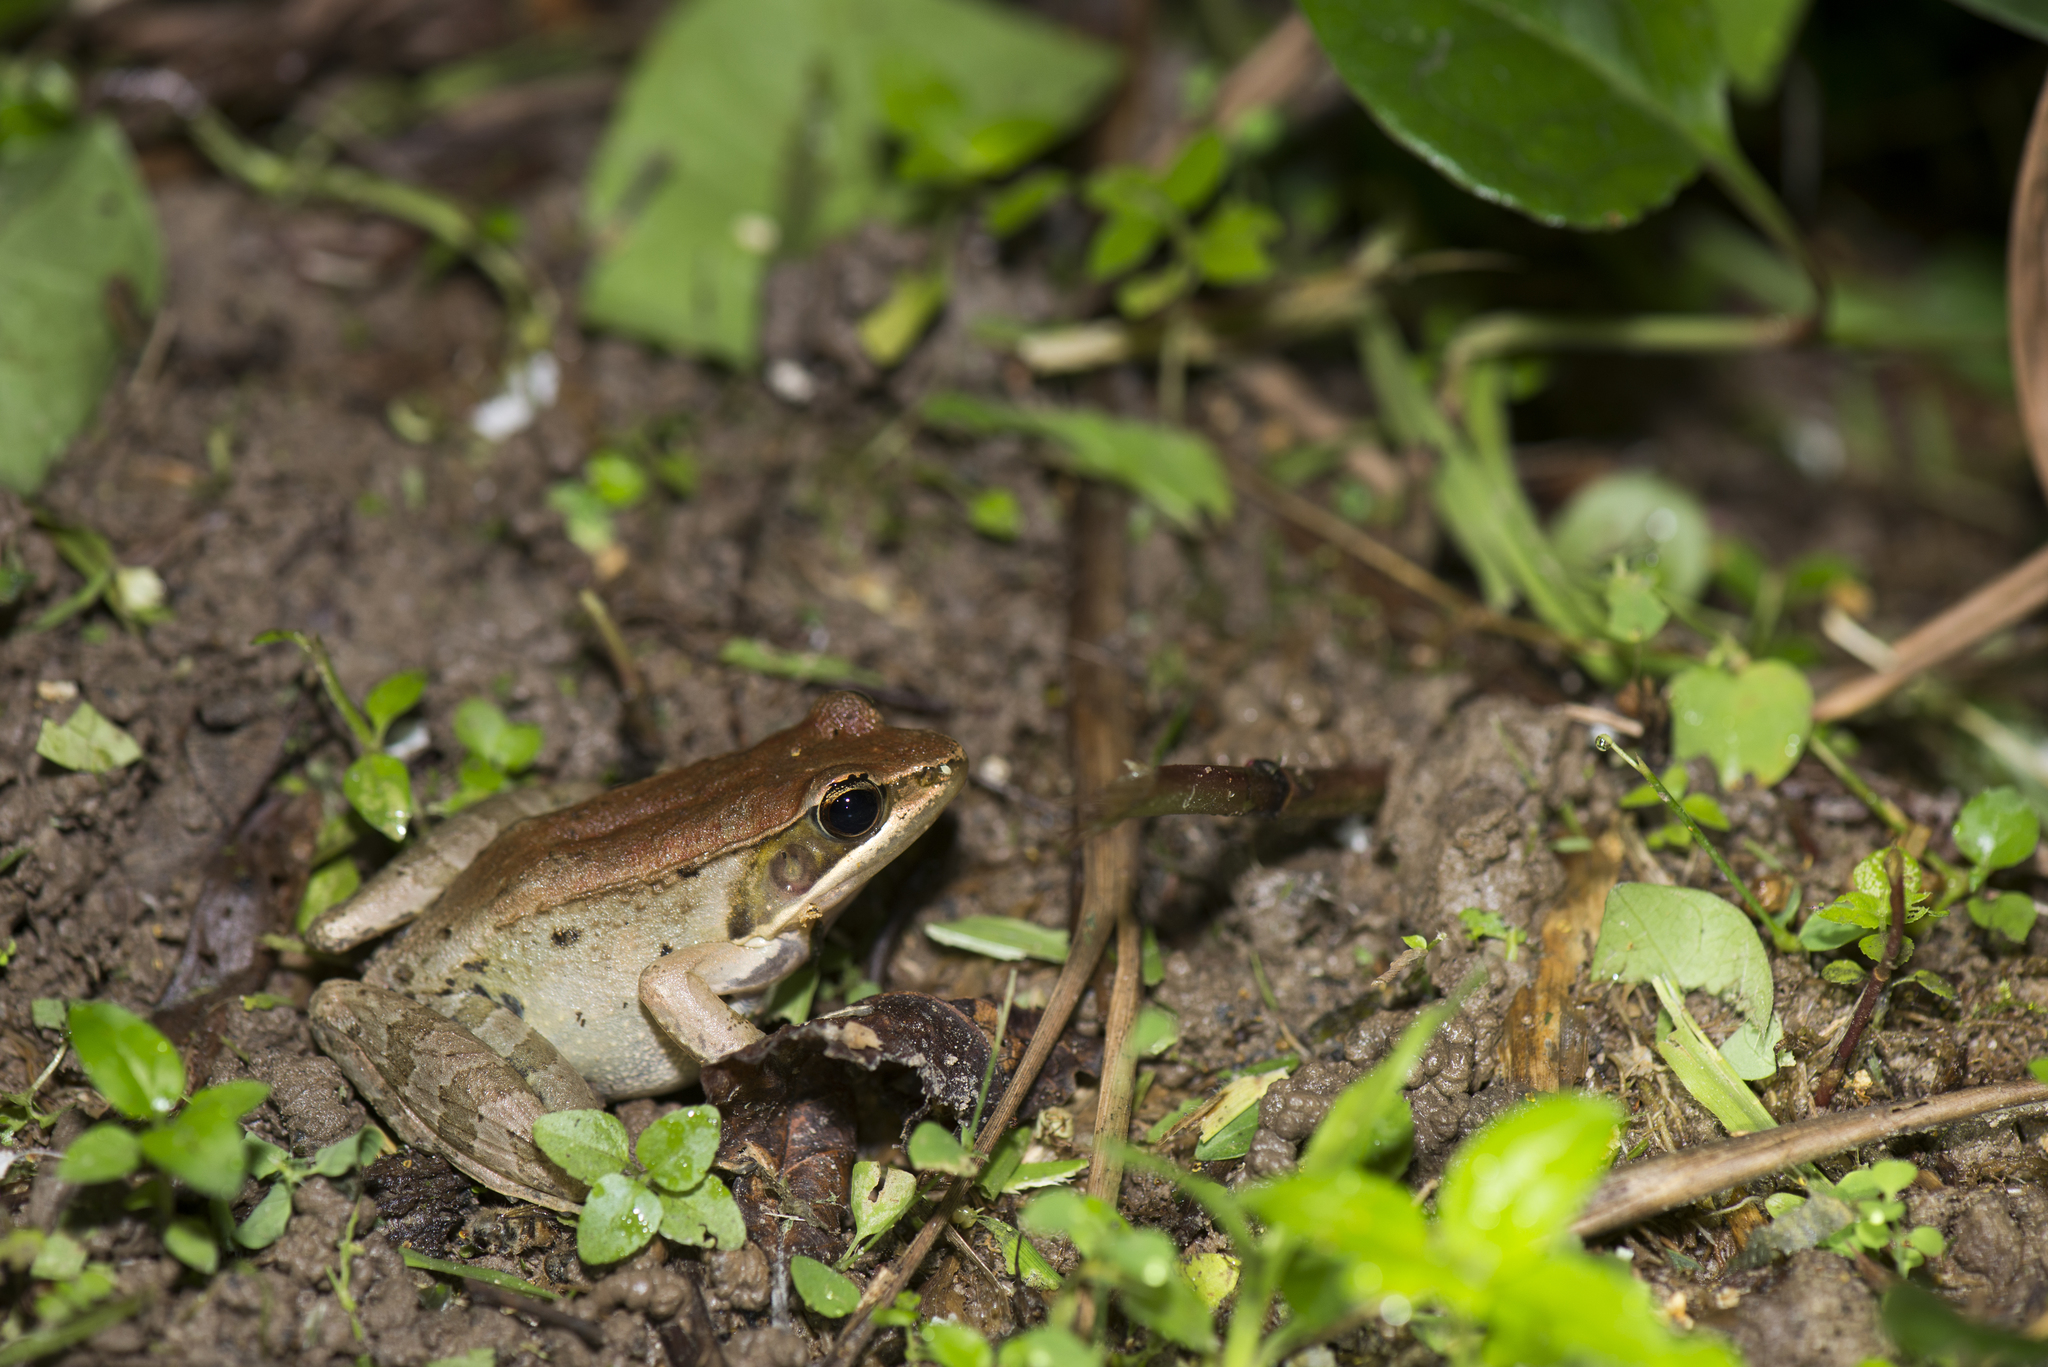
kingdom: Animalia
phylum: Chordata
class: Amphibia
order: Anura
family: Ranidae
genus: Nidirana
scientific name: Nidirana adenopleura
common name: Olive frog
